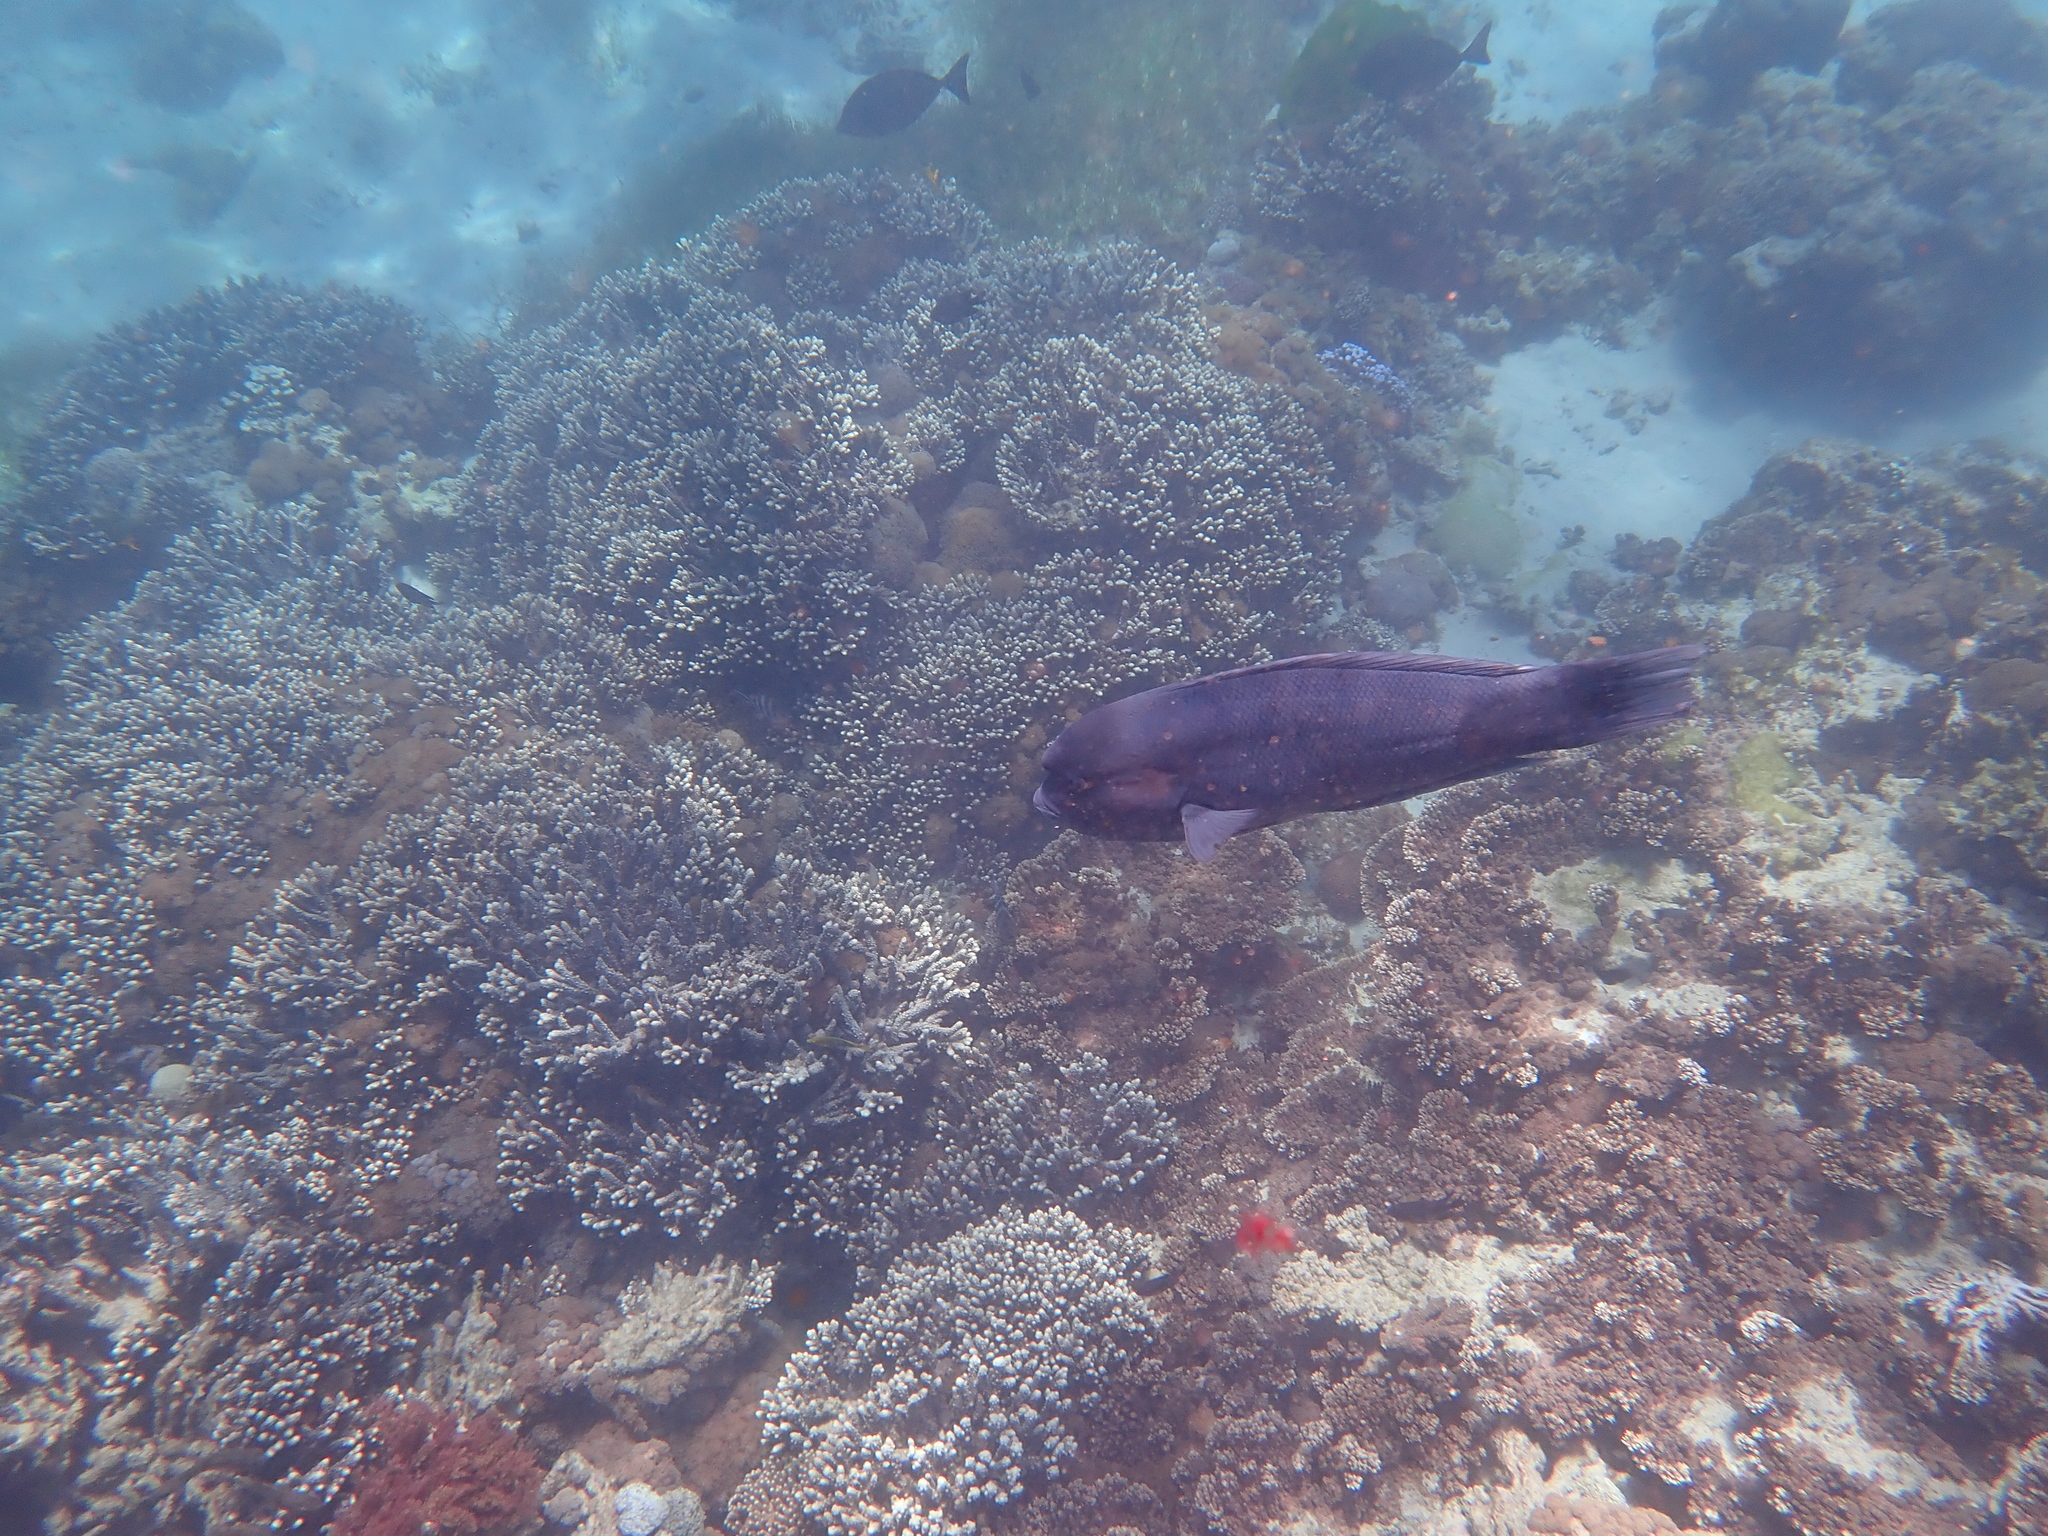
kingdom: Animalia
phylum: Chordata
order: Perciformes
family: Labridae
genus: Coris
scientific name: Coris bulbifrons
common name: Doubleheader
